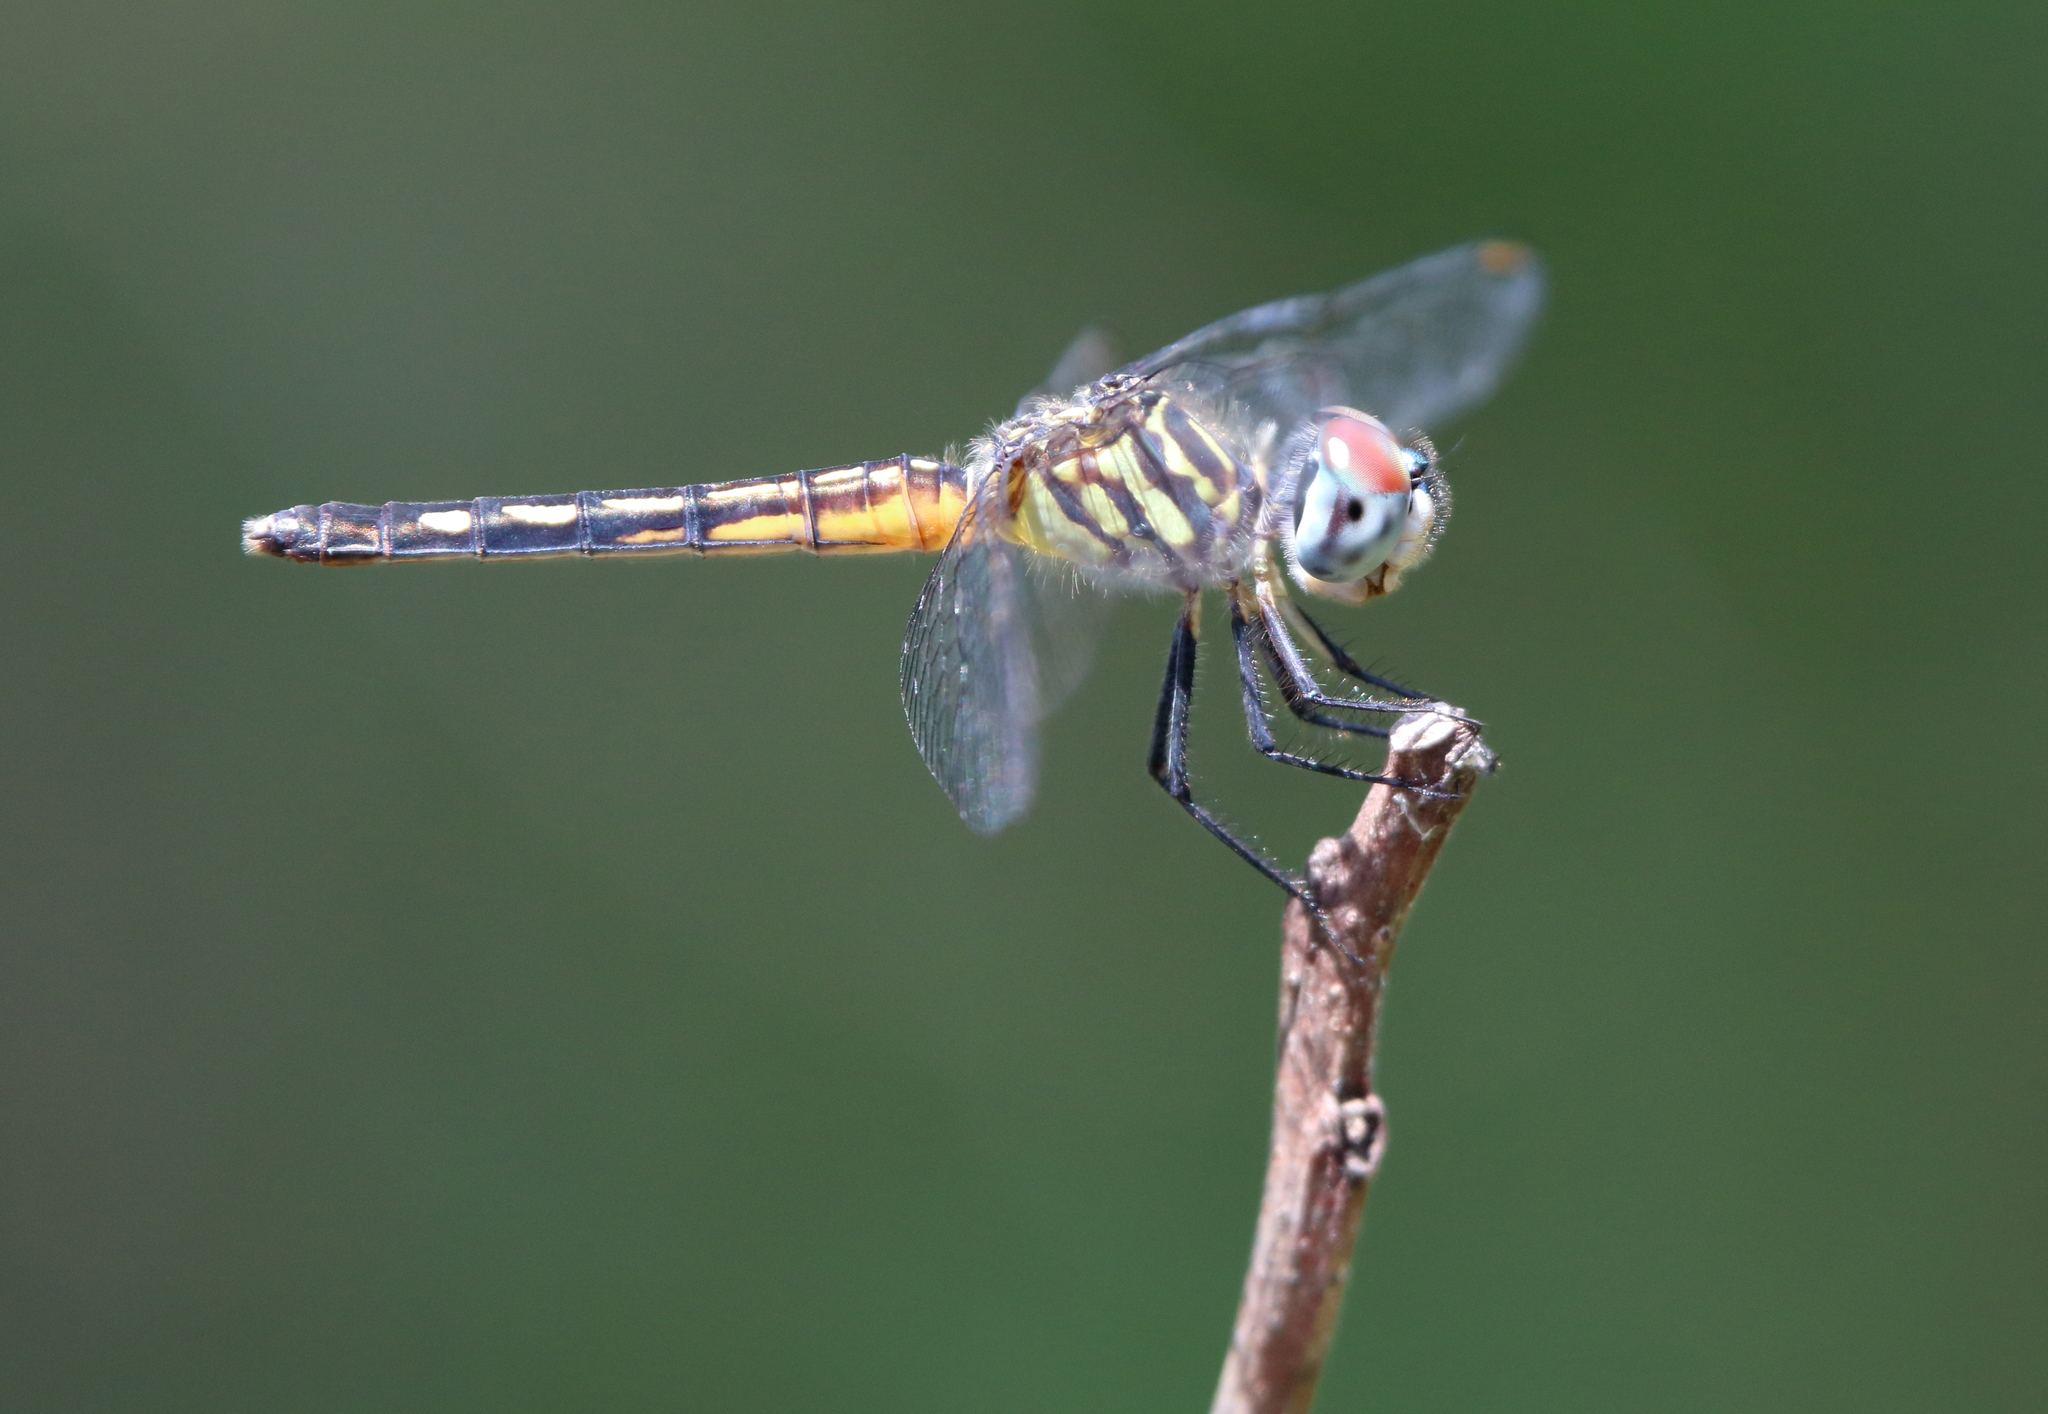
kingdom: Animalia
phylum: Arthropoda
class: Insecta
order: Odonata
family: Libellulidae
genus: Pachydiplax
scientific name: Pachydiplax longipennis
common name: Blue dasher
